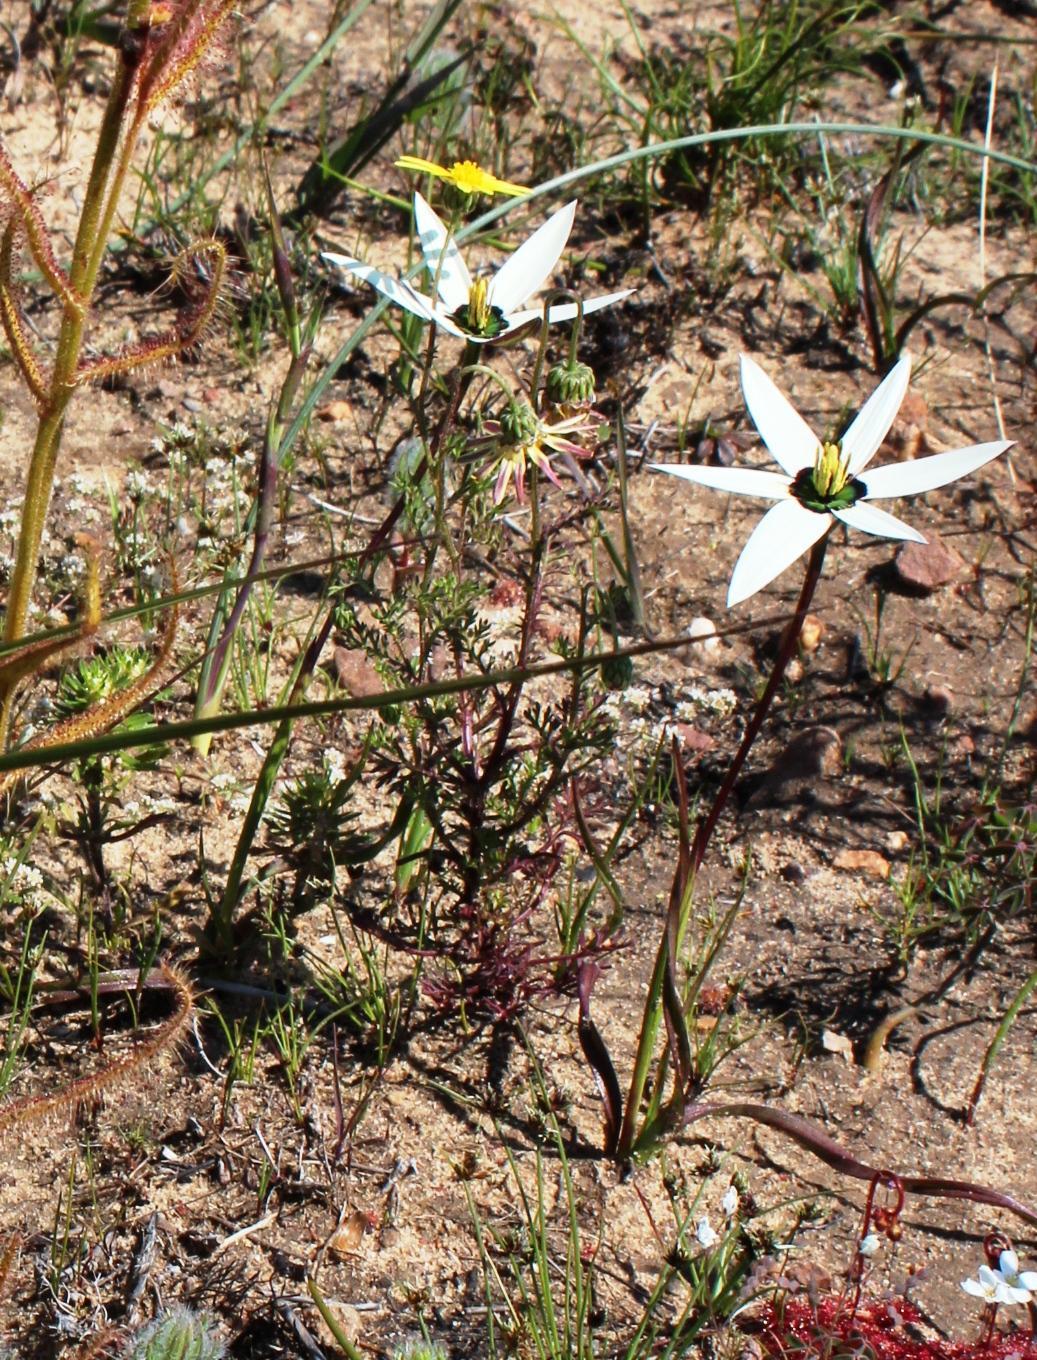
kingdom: Plantae
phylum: Tracheophyta
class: Liliopsida
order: Asparagales
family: Hypoxidaceae
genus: Pauridia
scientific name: Pauridia capensis
